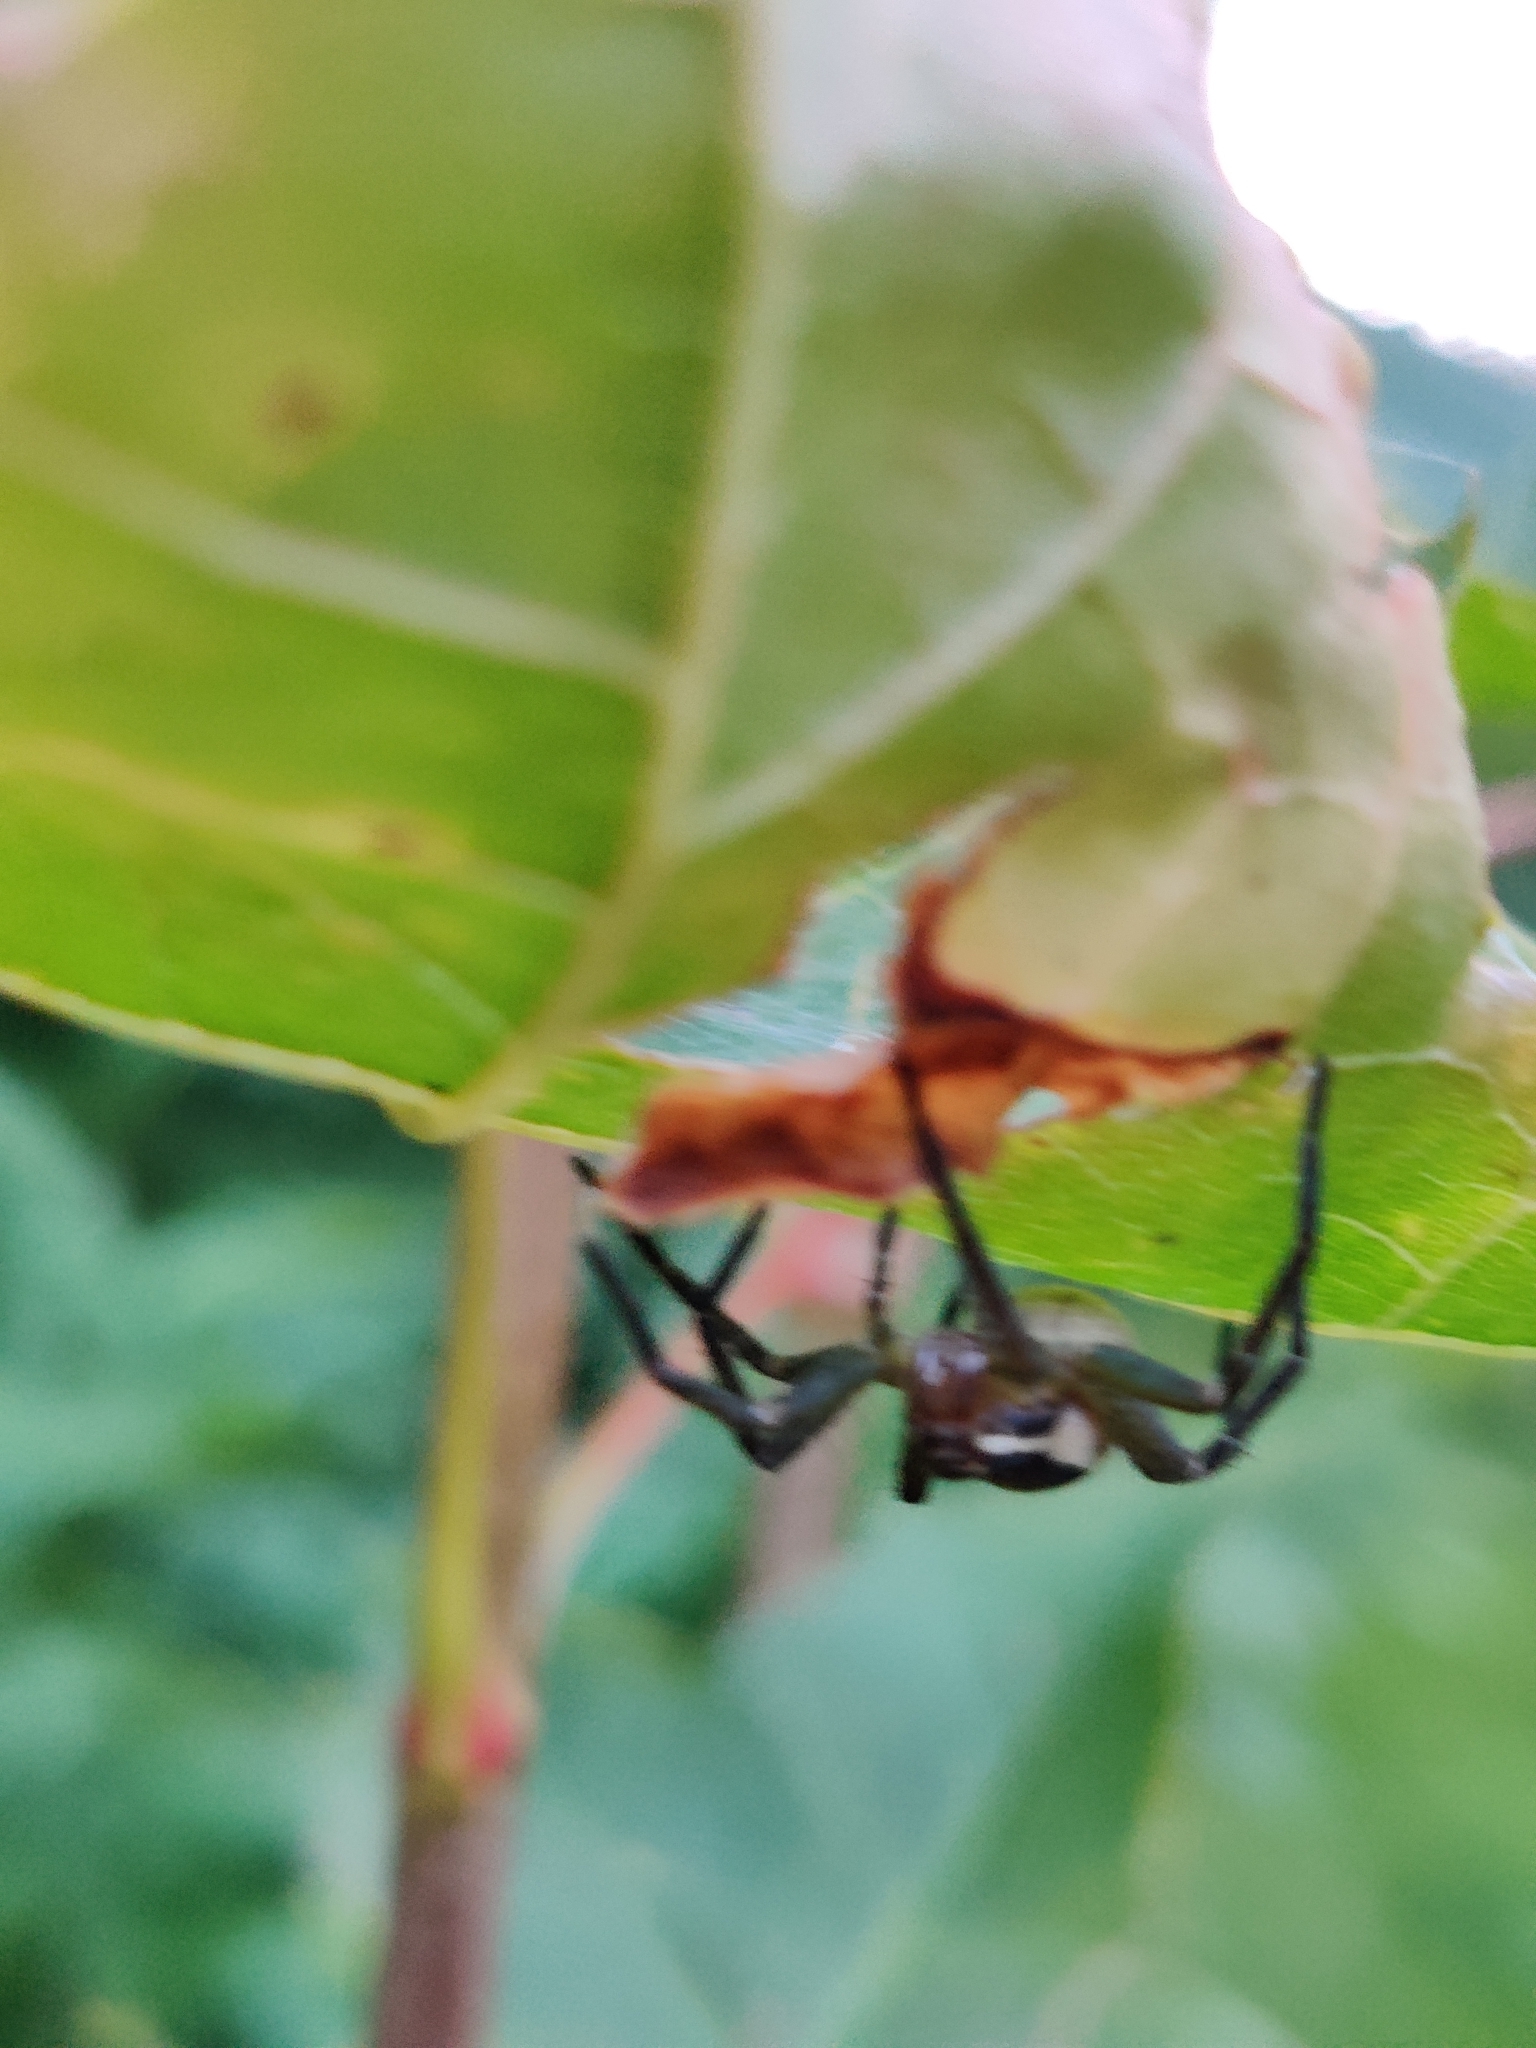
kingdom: Animalia
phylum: Arthropoda
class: Arachnida
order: Araneae
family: Pisauridae
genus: Dolomedes
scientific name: Dolomedes
